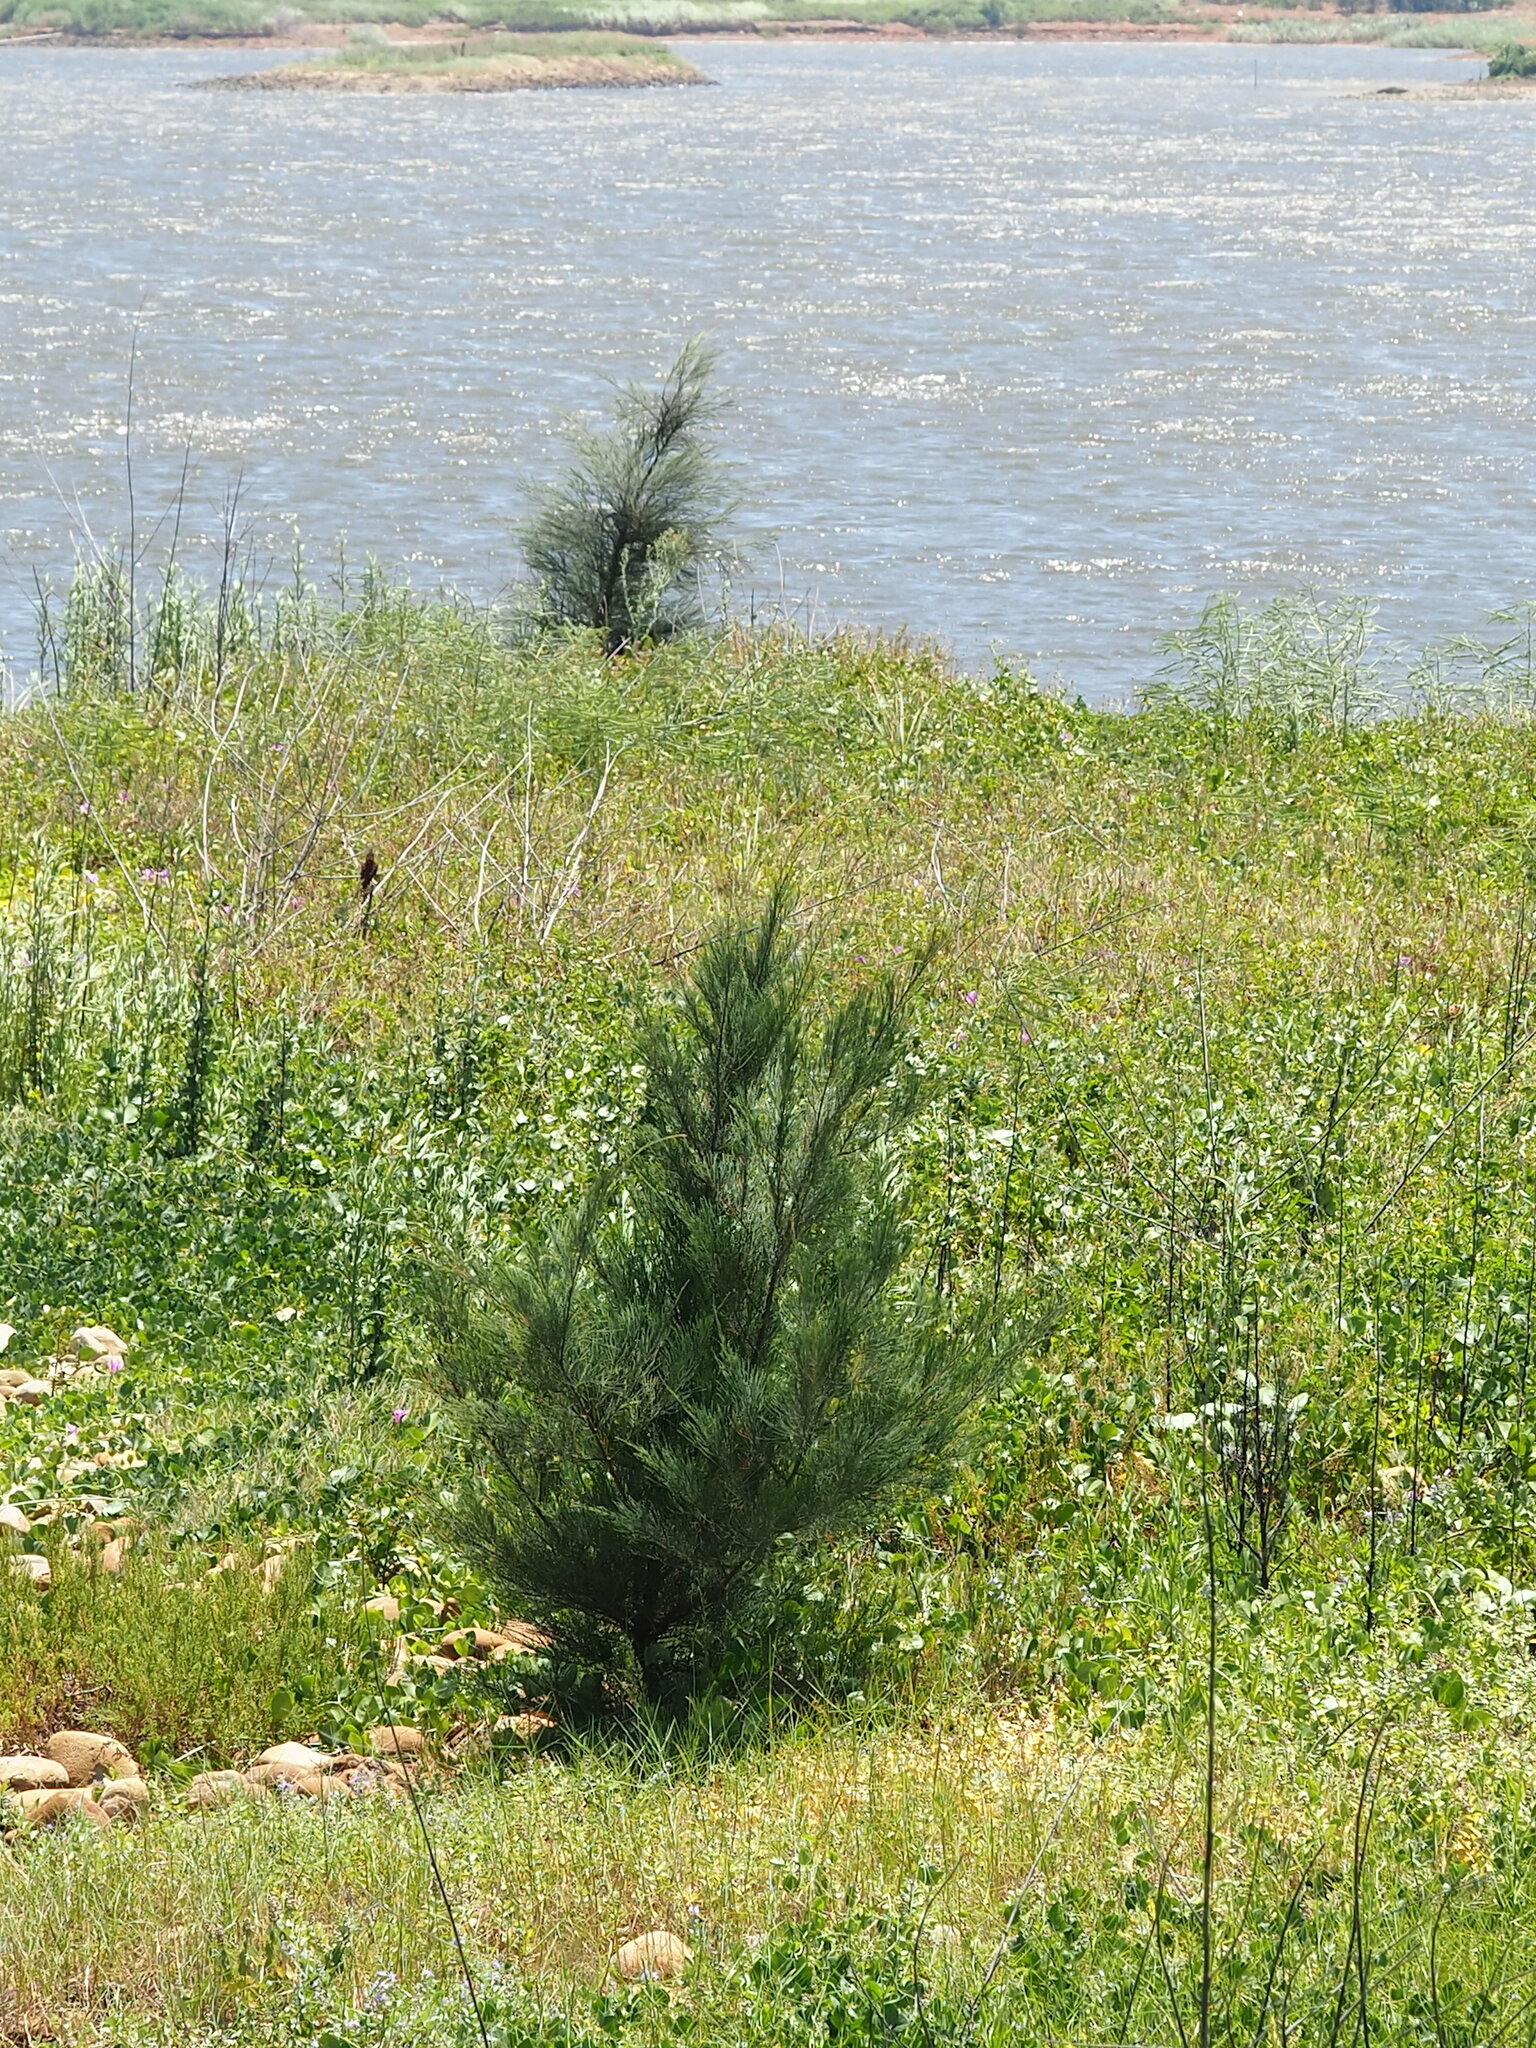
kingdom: Plantae
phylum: Tracheophyta
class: Magnoliopsida
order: Fagales
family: Casuarinaceae
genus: Casuarina
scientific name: Casuarina equisetifolia
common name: Beach sheoak
